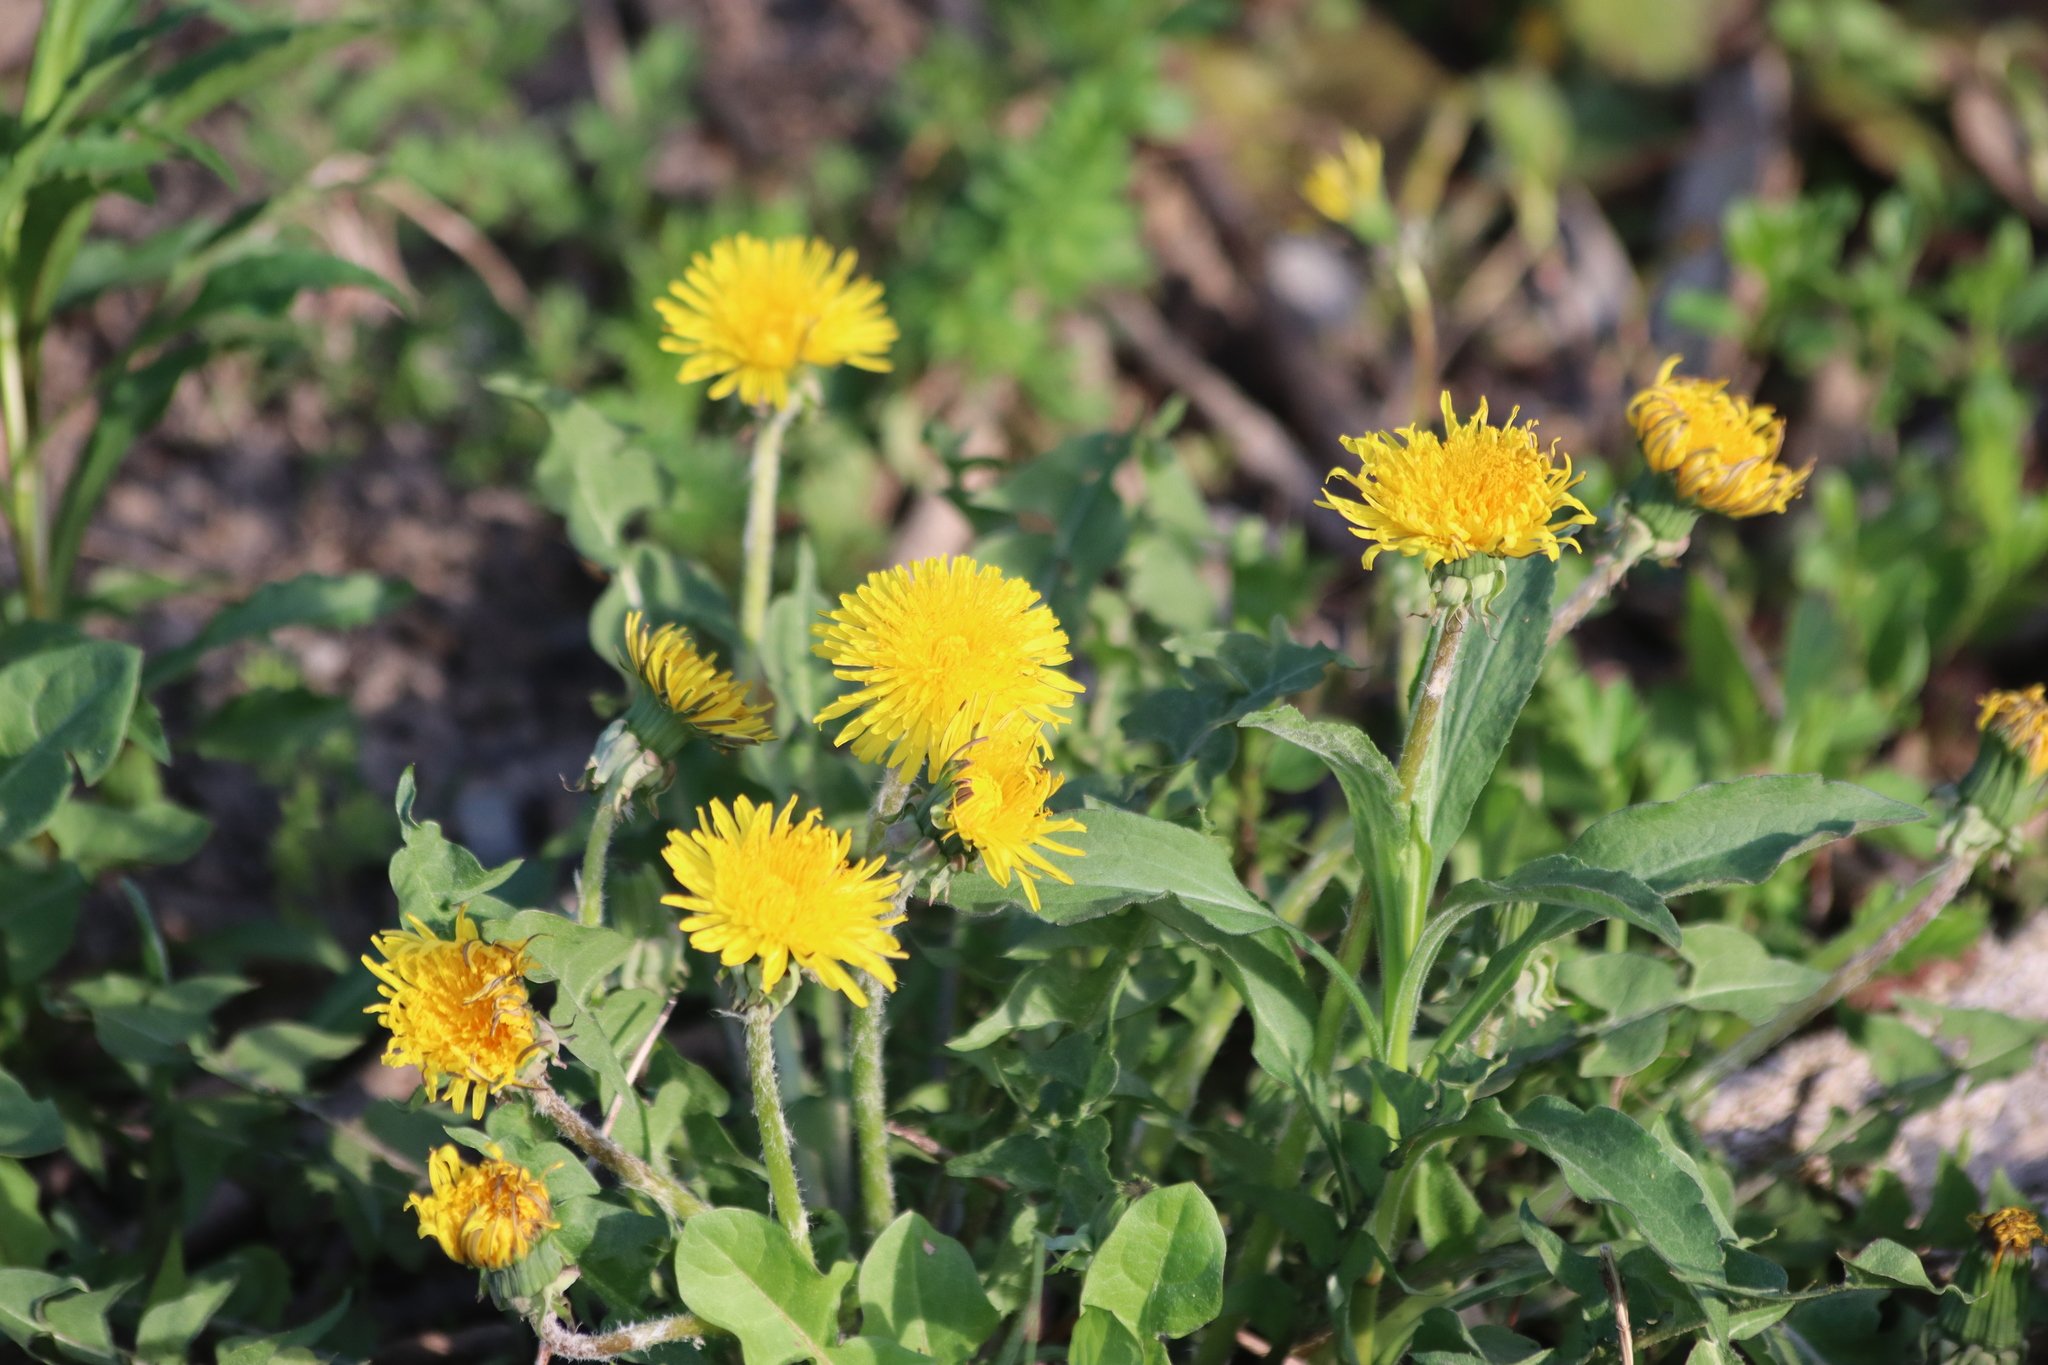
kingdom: Plantae
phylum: Tracheophyta
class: Magnoliopsida
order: Asterales
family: Asteraceae
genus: Taraxacum
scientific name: Taraxacum officinale
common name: Common dandelion
